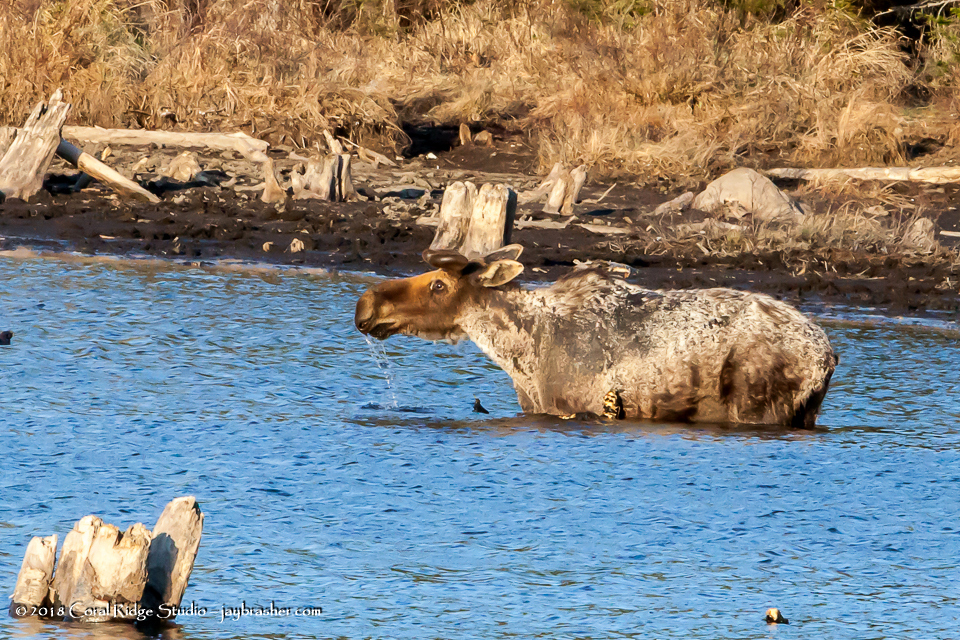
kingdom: Animalia
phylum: Chordata
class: Mammalia
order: Artiodactyla
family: Cervidae
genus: Alces
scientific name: Alces alces
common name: Moose
